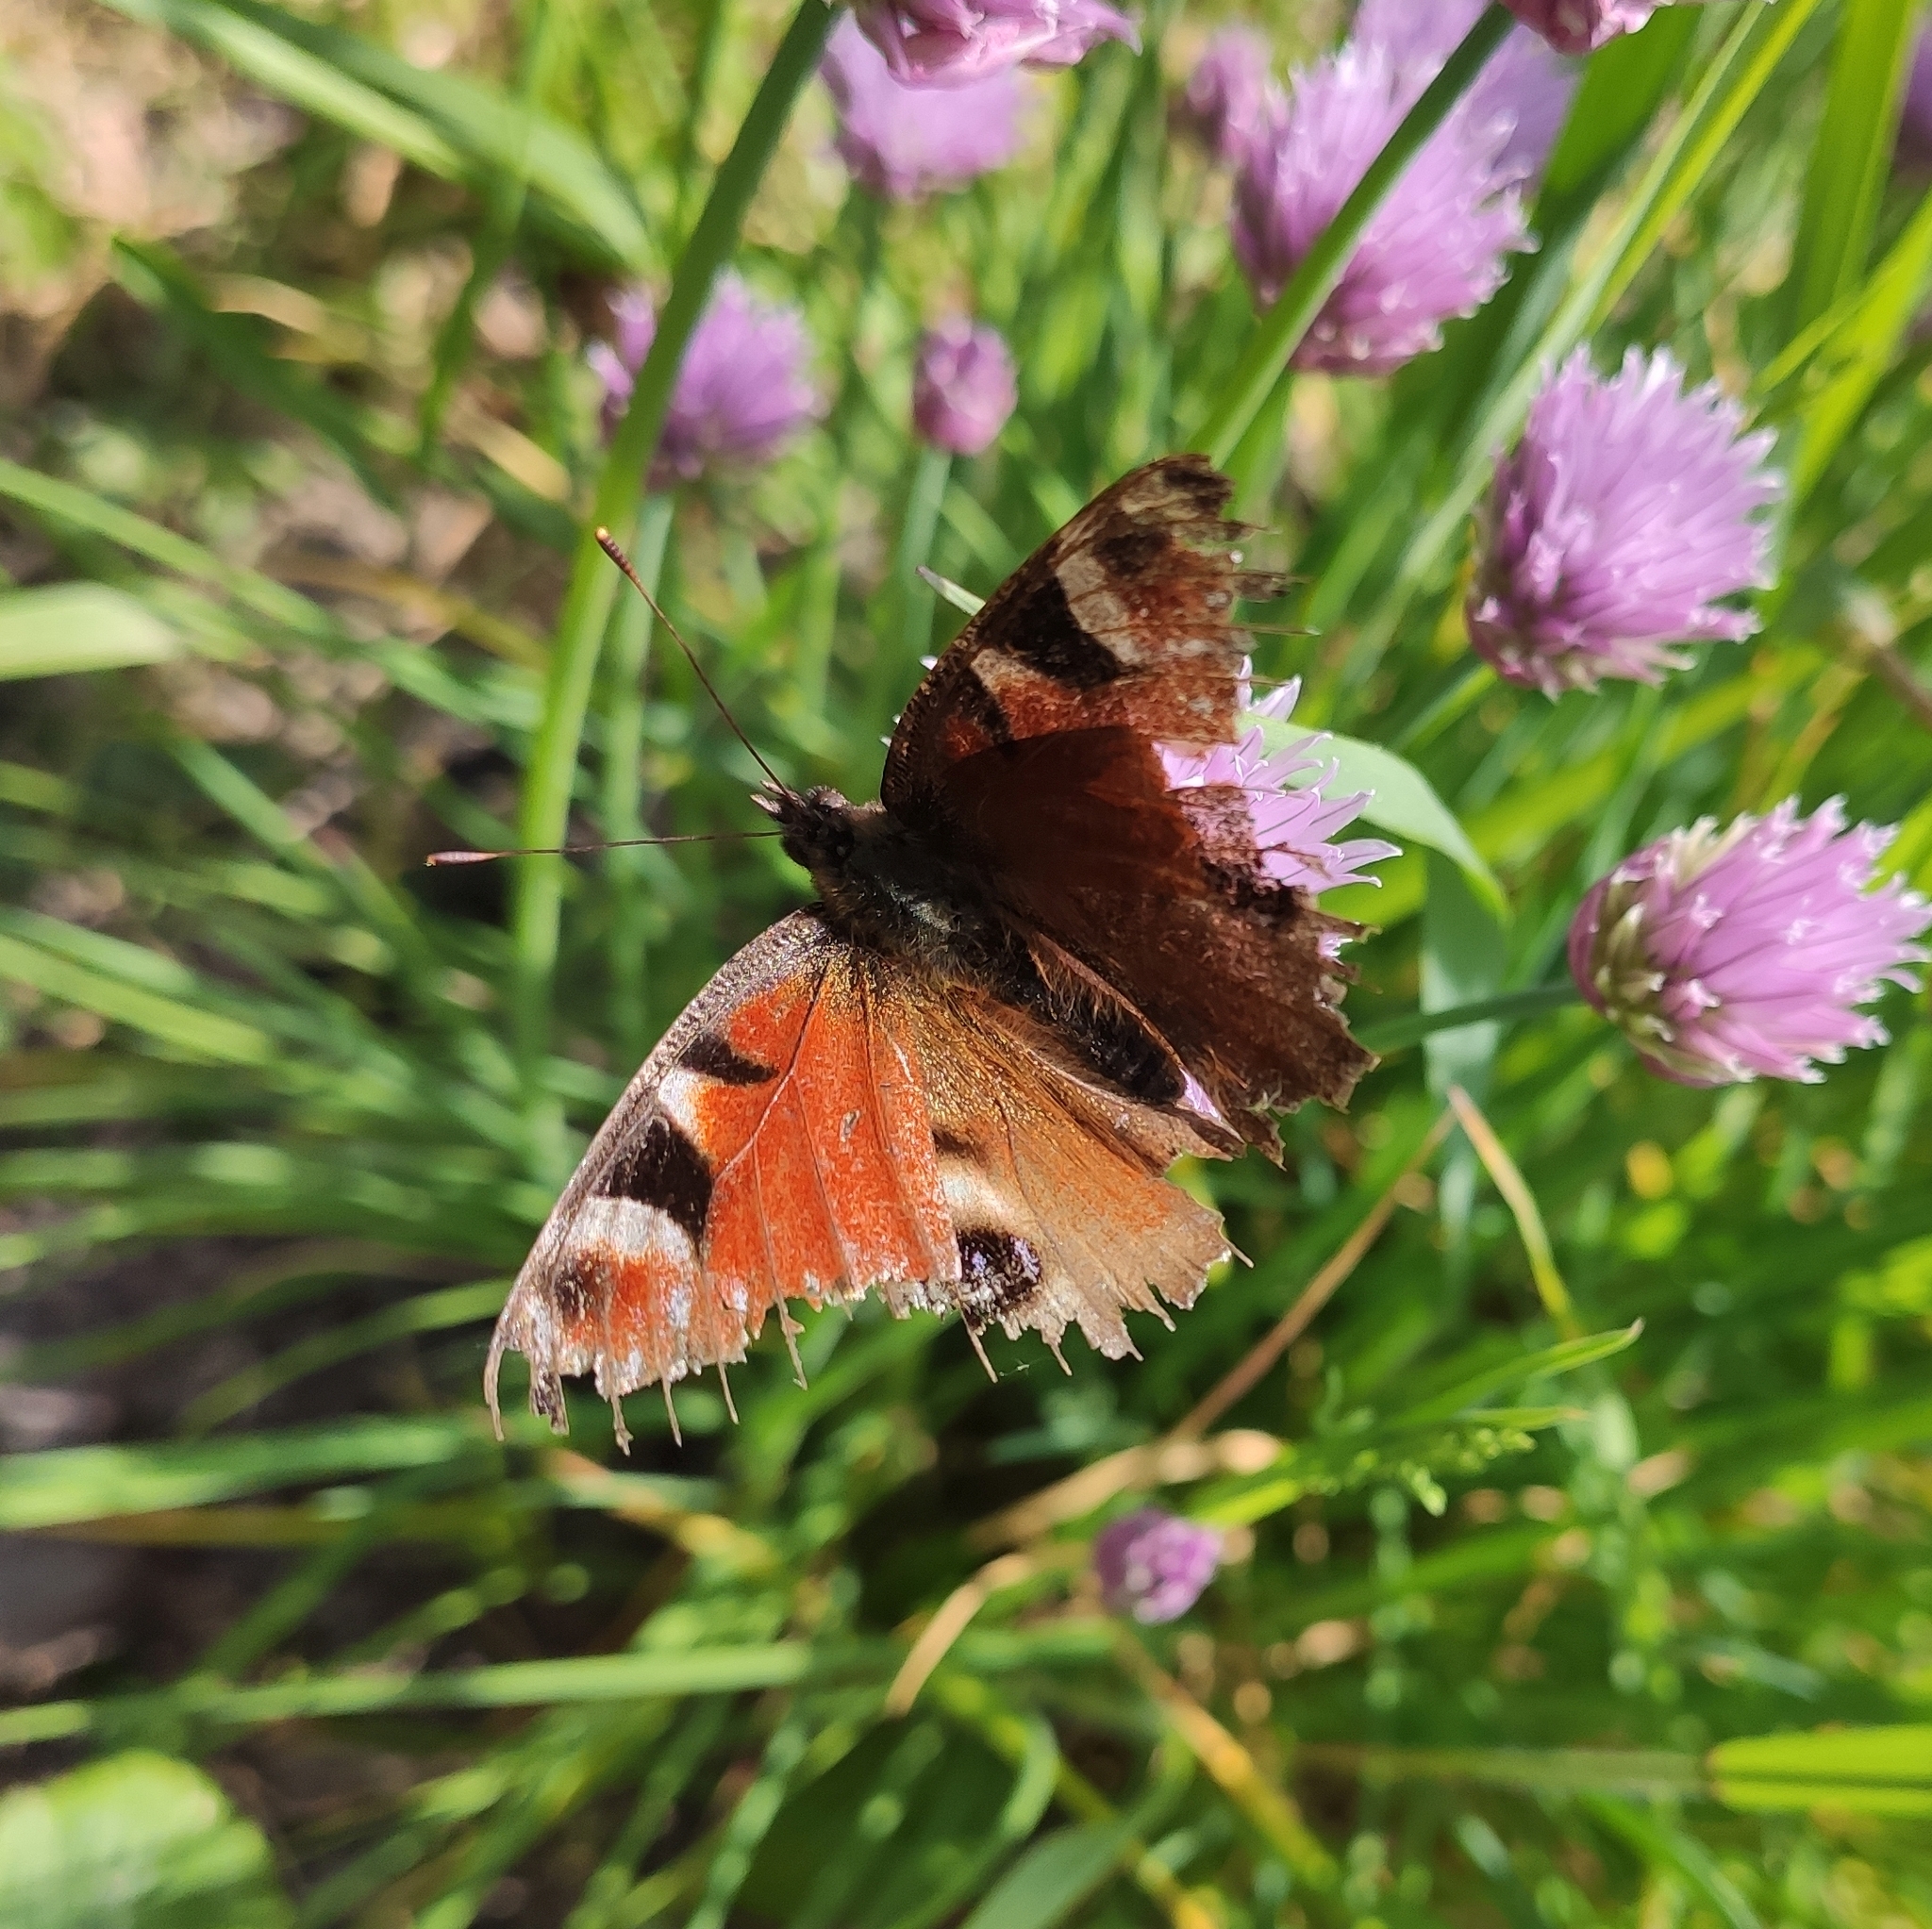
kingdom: Animalia
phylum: Arthropoda
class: Insecta
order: Lepidoptera
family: Nymphalidae
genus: Aglais
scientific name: Aglais io
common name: Peacock
